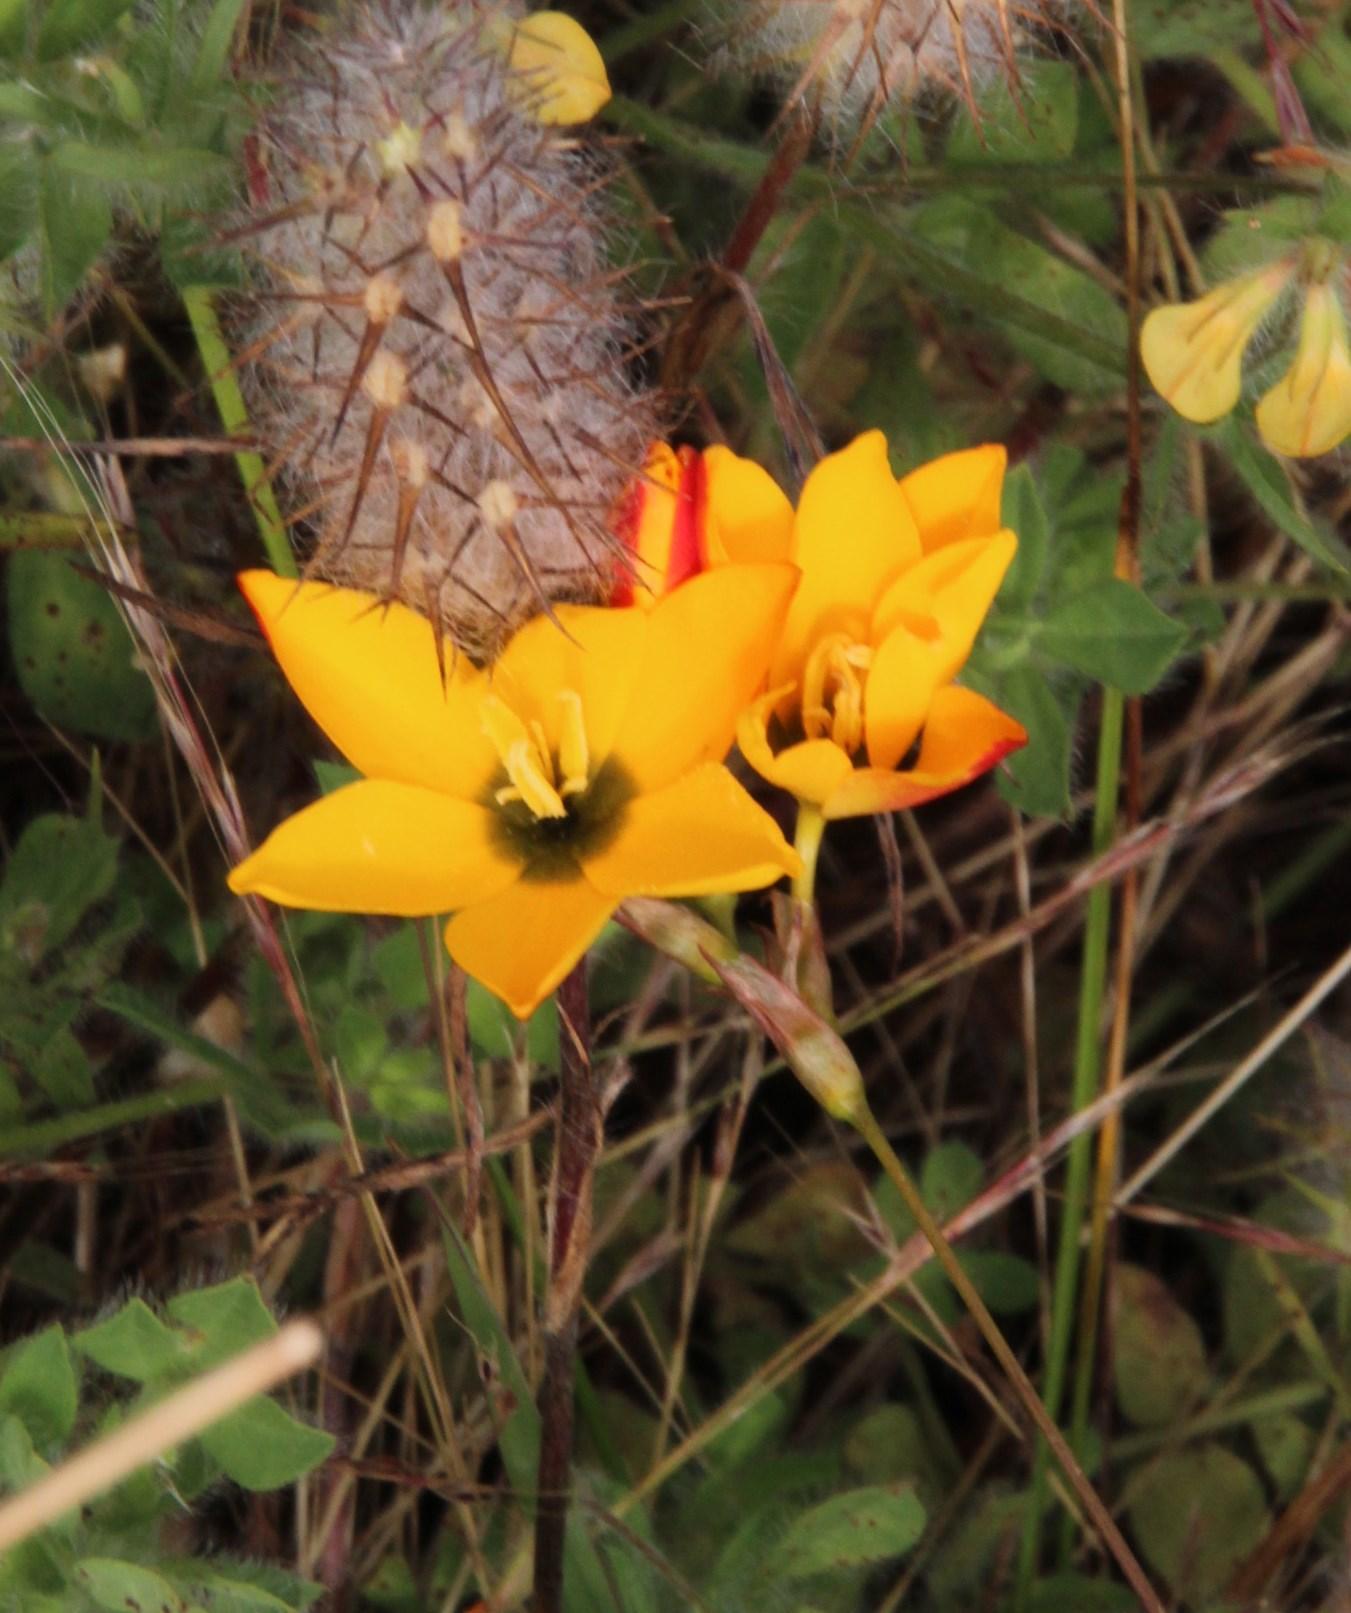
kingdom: Plantae
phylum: Tracheophyta
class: Liliopsida
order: Asparagales
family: Iridaceae
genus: Ixia
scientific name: Ixia dubia
